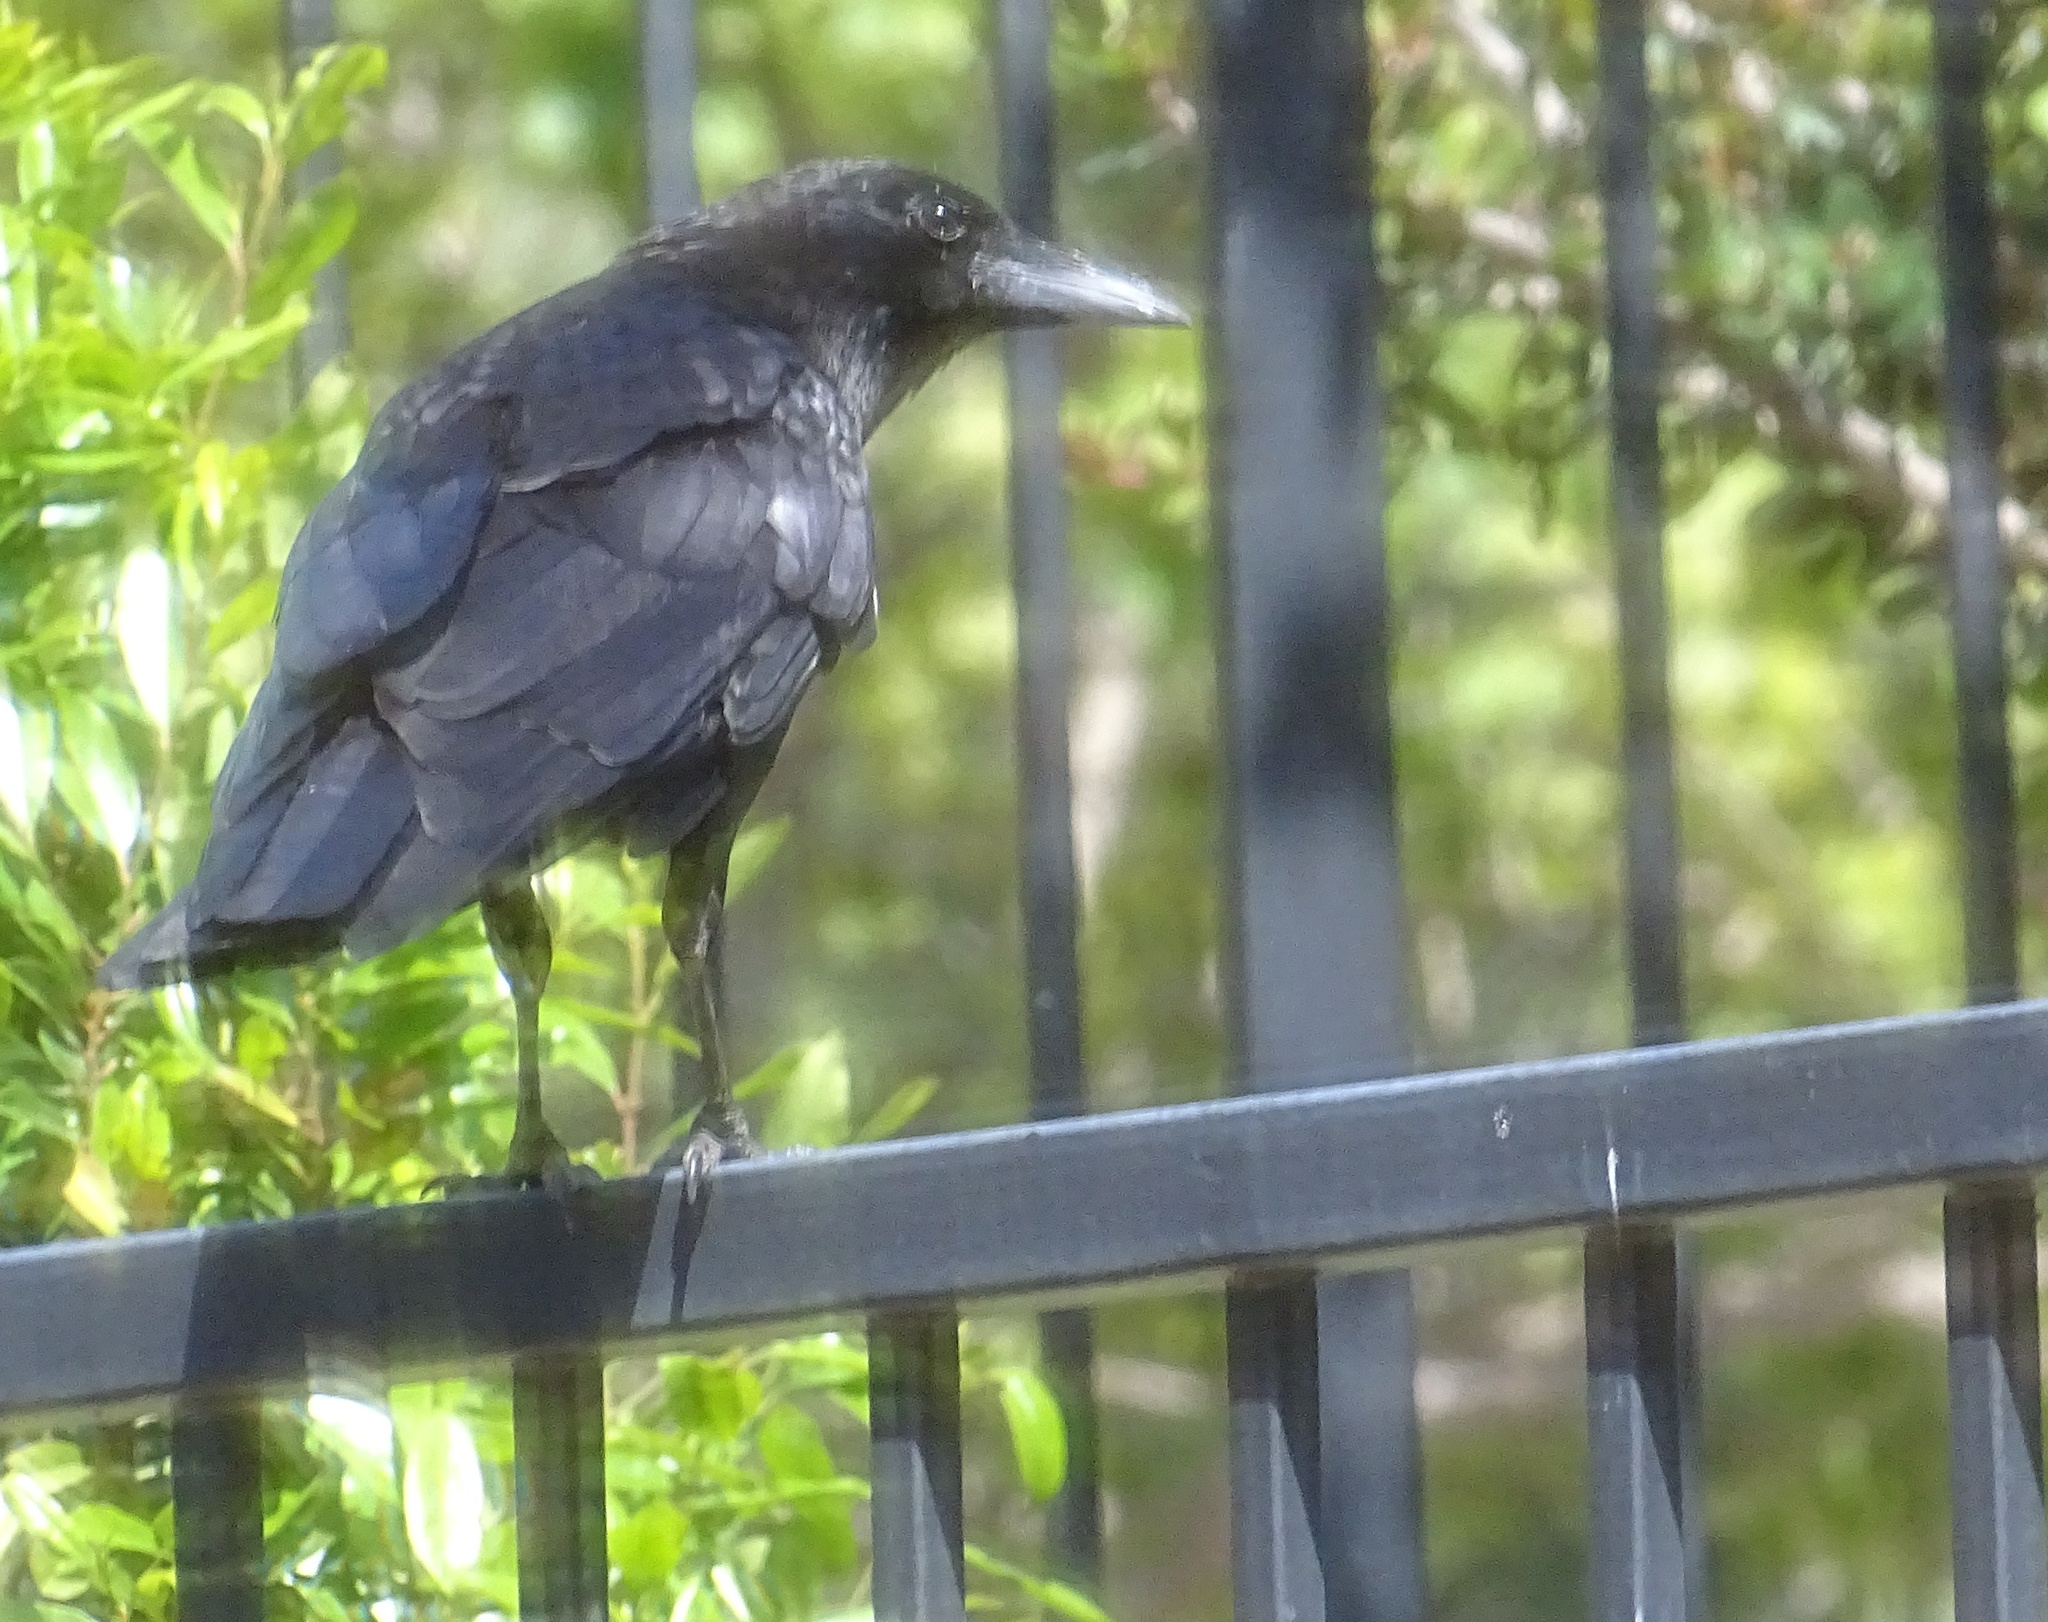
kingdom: Animalia
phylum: Chordata
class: Aves
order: Passeriformes
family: Corvidae
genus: Corvus
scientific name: Corvus brachyrhynchos
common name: American crow
